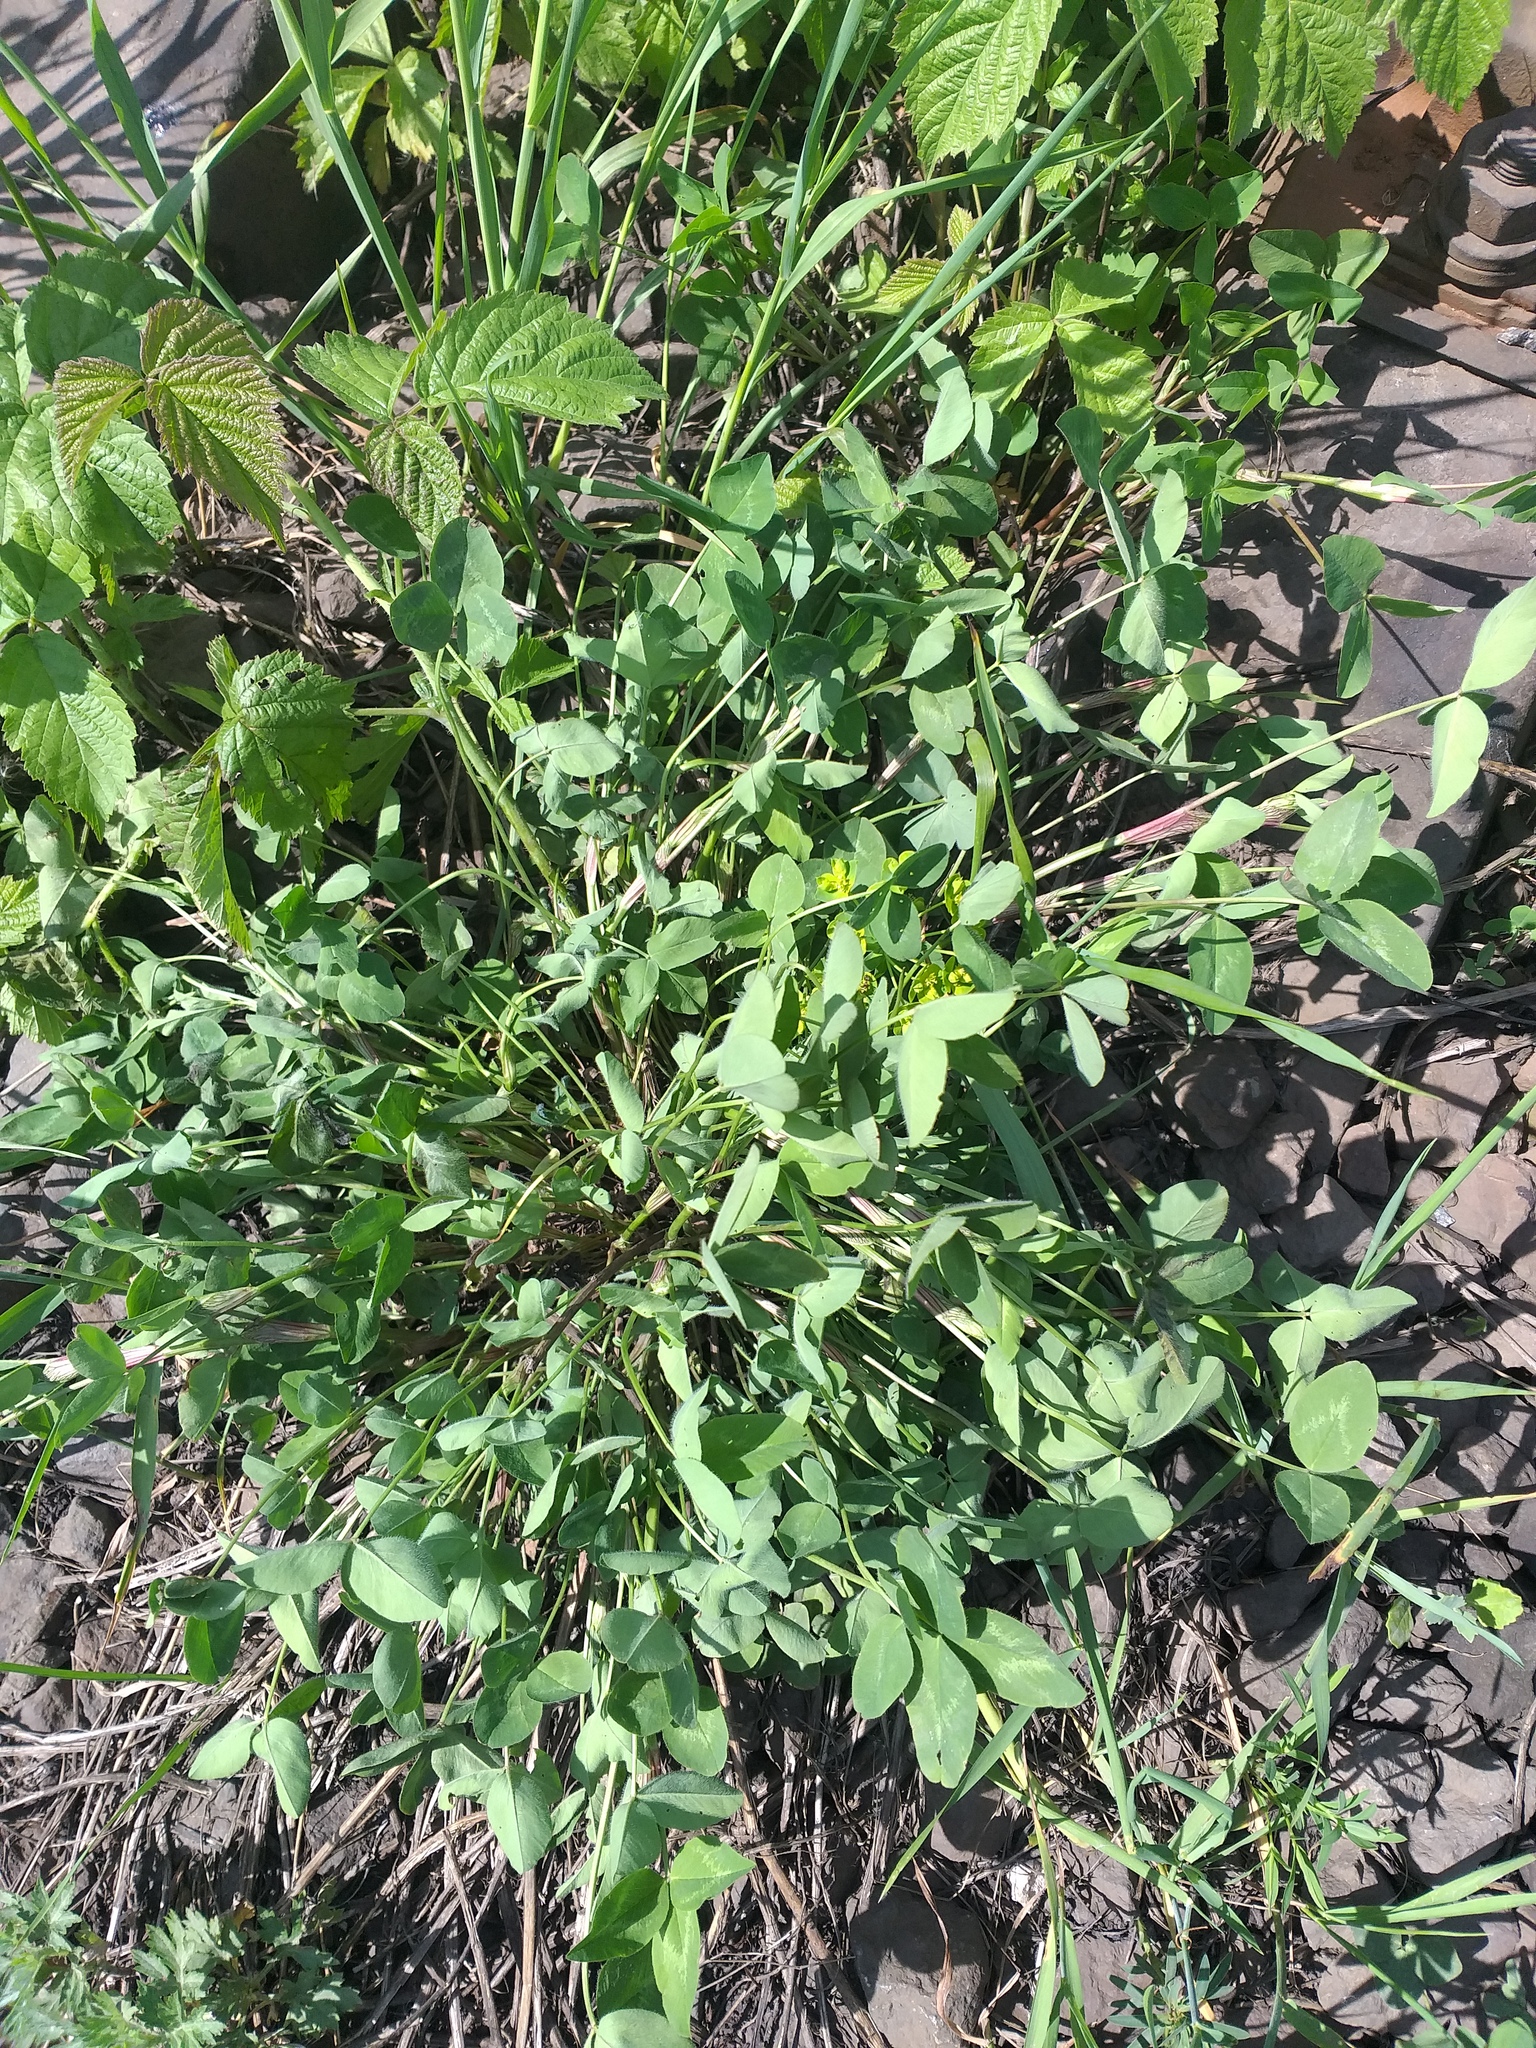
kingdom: Plantae
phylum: Tracheophyta
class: Magnoliopsida
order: Fabales
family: Fabaceae
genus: Trifolium
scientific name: Trifolium pratense
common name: Red clover
